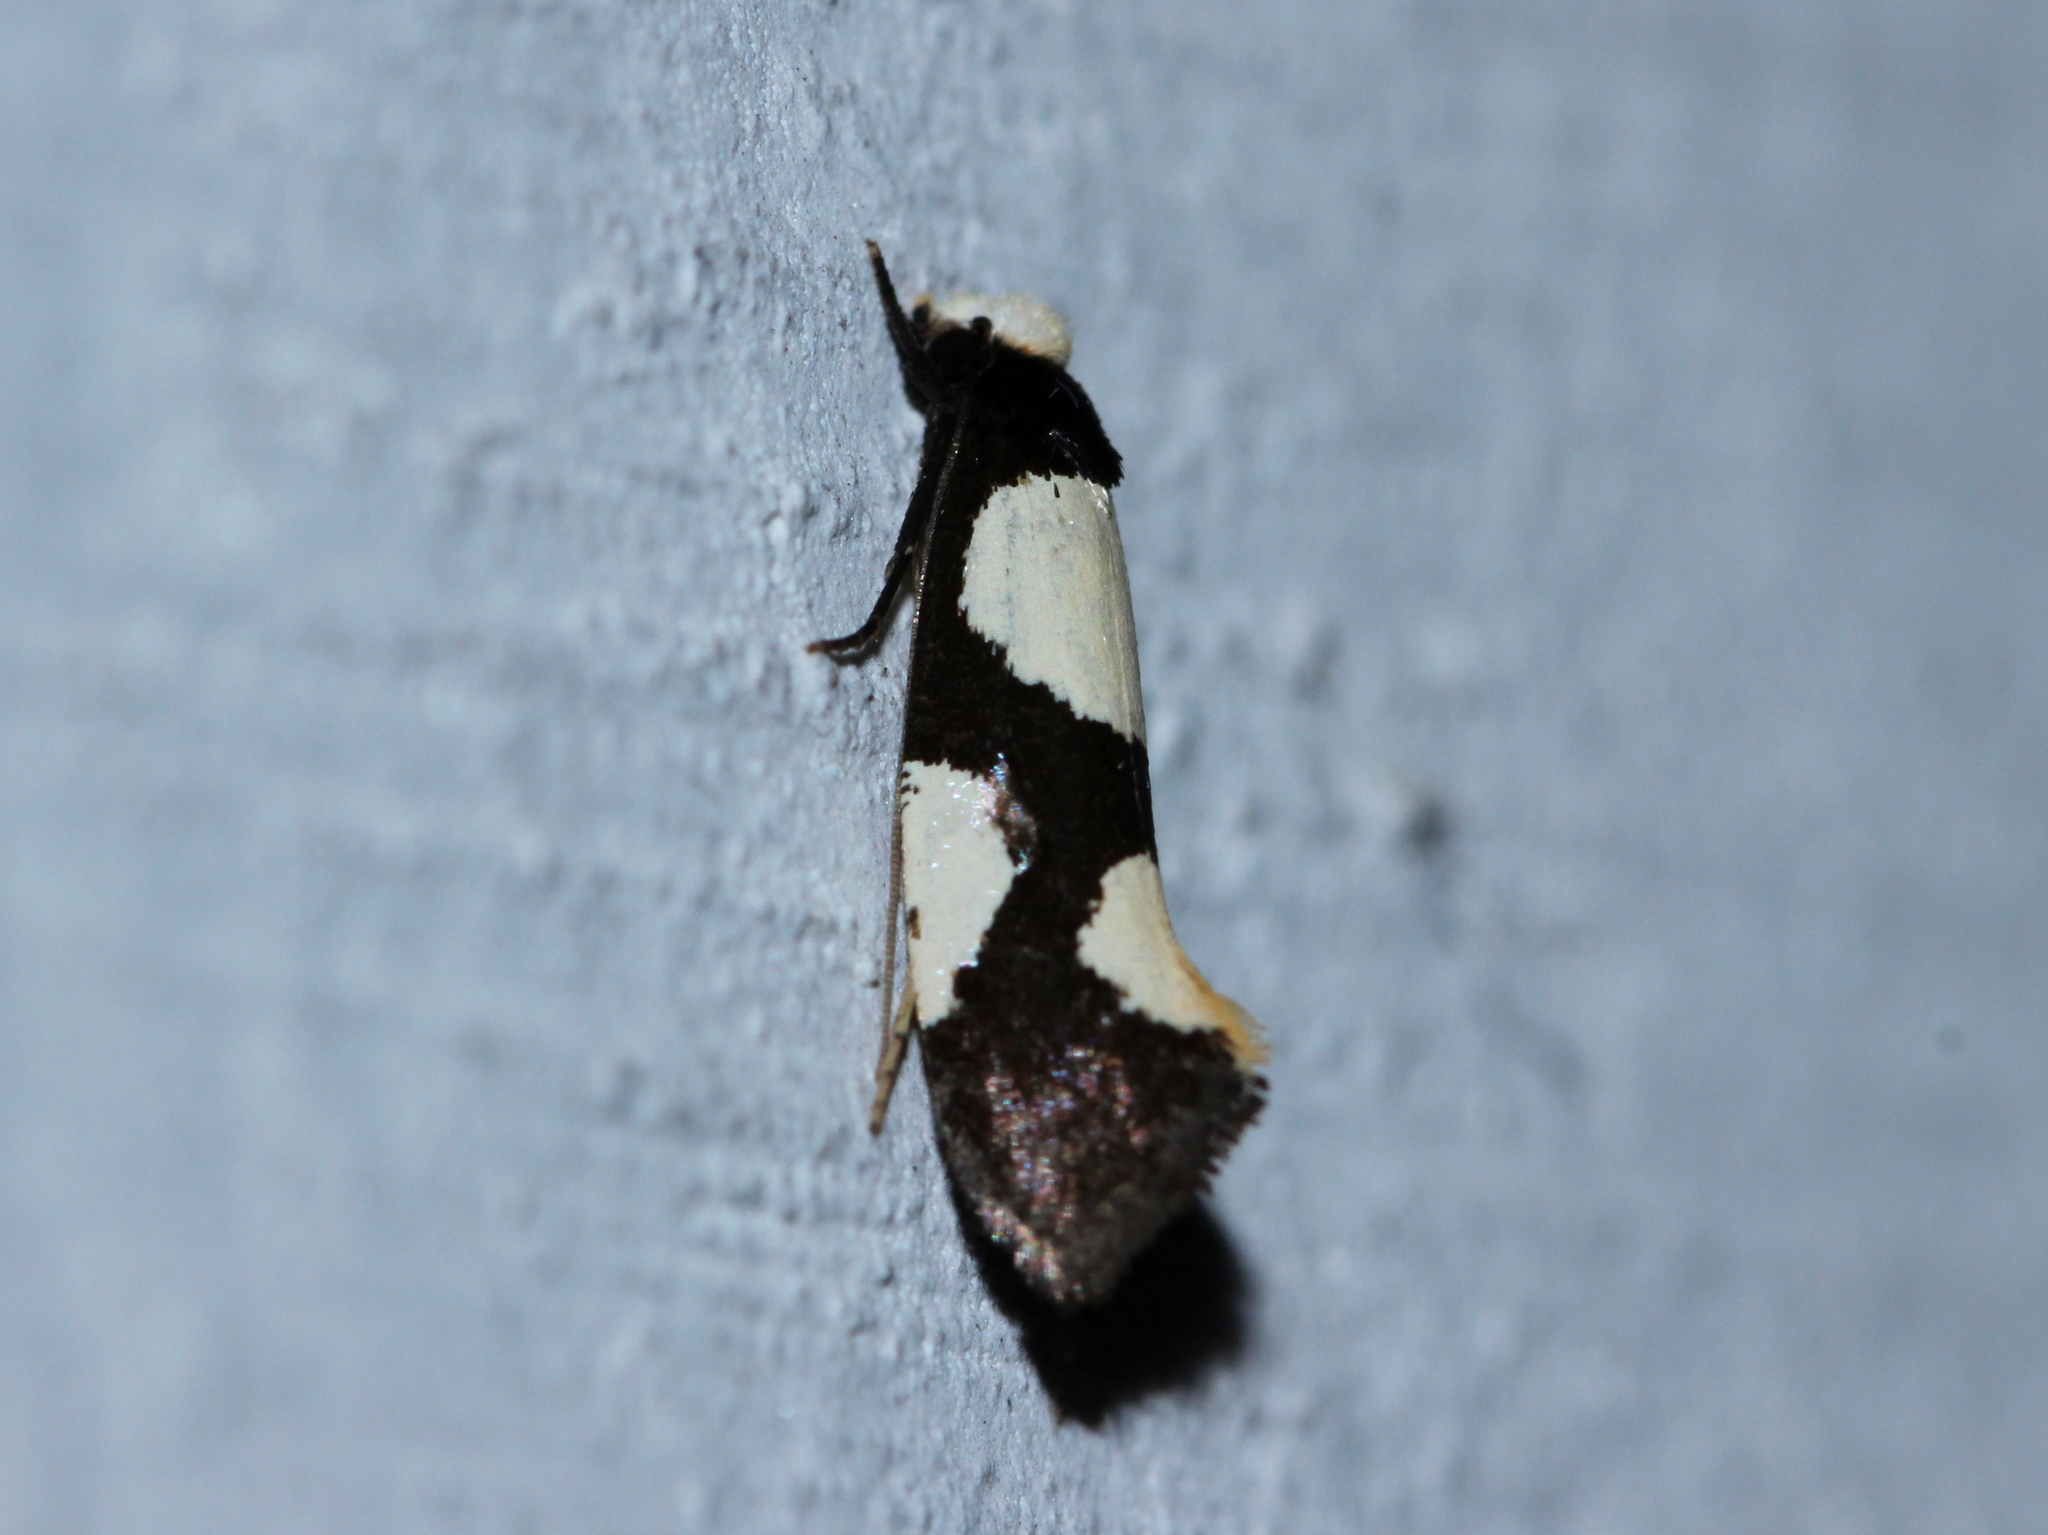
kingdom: Animalia
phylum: Arthropoda
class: Insecta
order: Lepidoptera
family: Tineidae
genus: Monopis
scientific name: Monopis trimaculella
